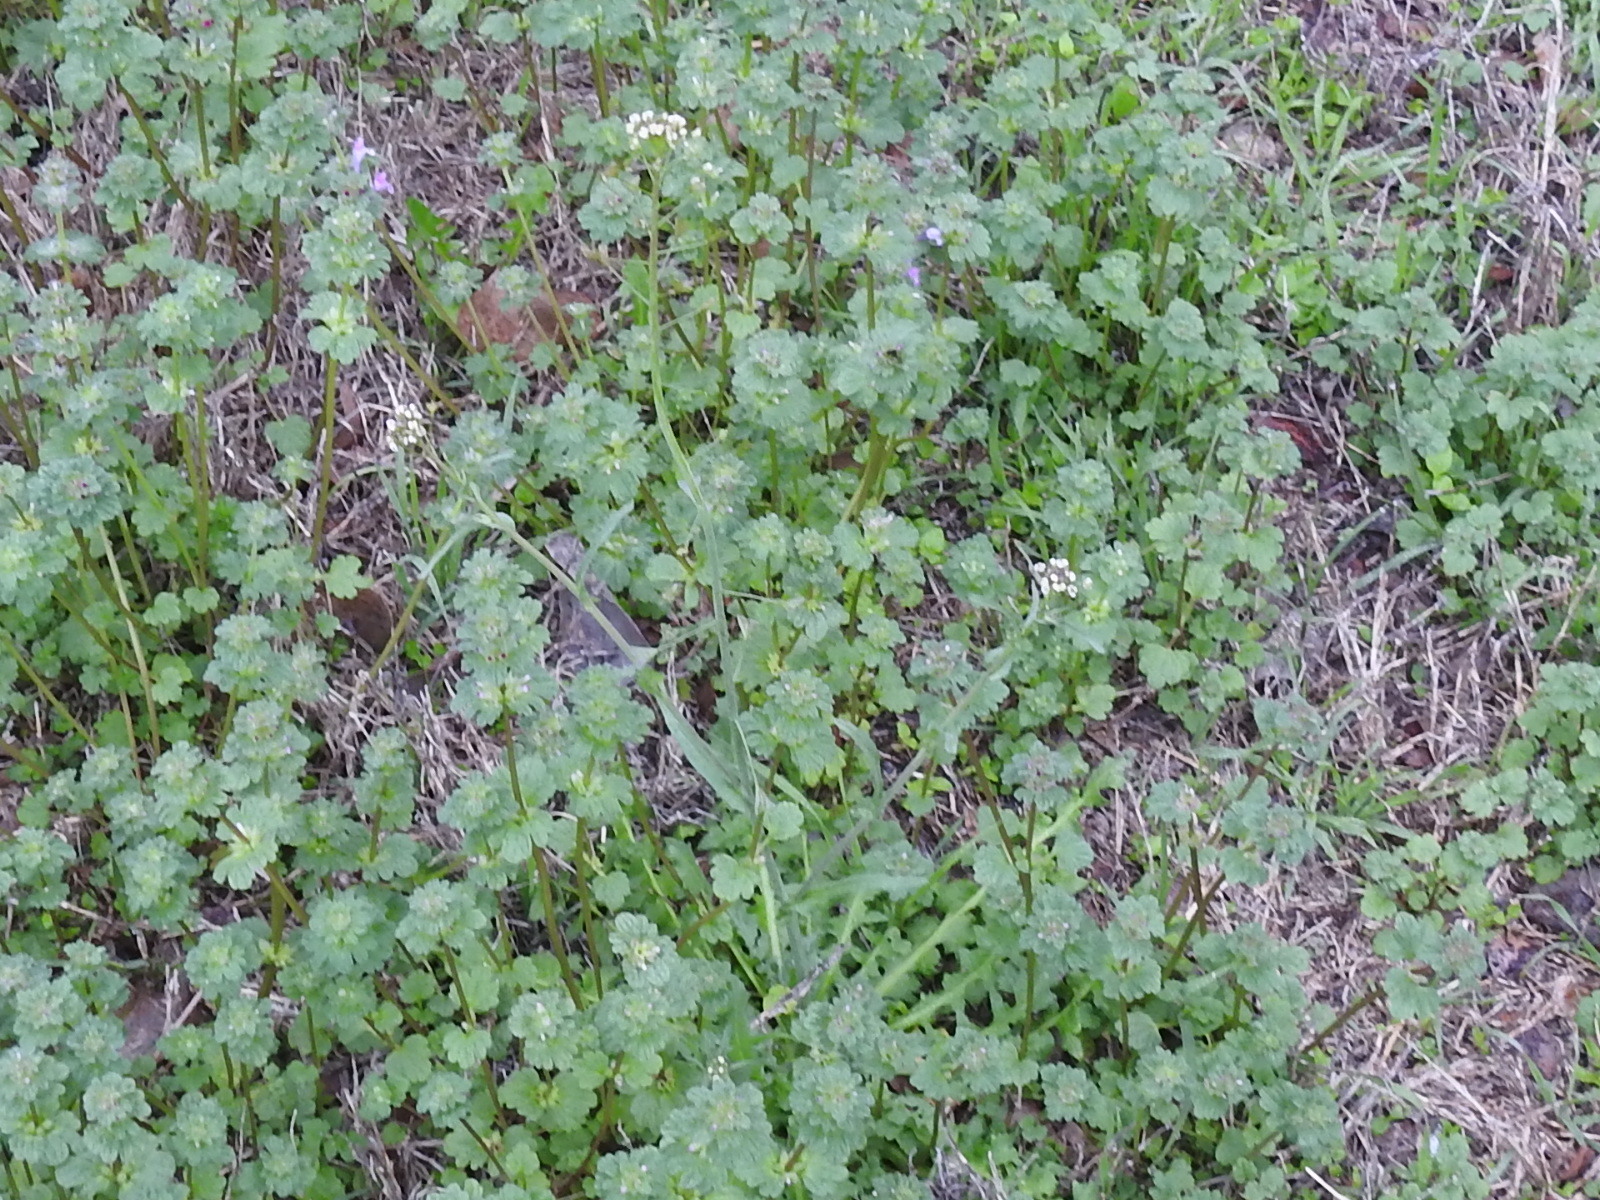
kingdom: Plantae
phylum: Tracheophyta
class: Magnoliopsida
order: Brassicales
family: Brassicaceae
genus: Capsella
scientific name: Capsella bursa-pastoris
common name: Shepherd's purse
